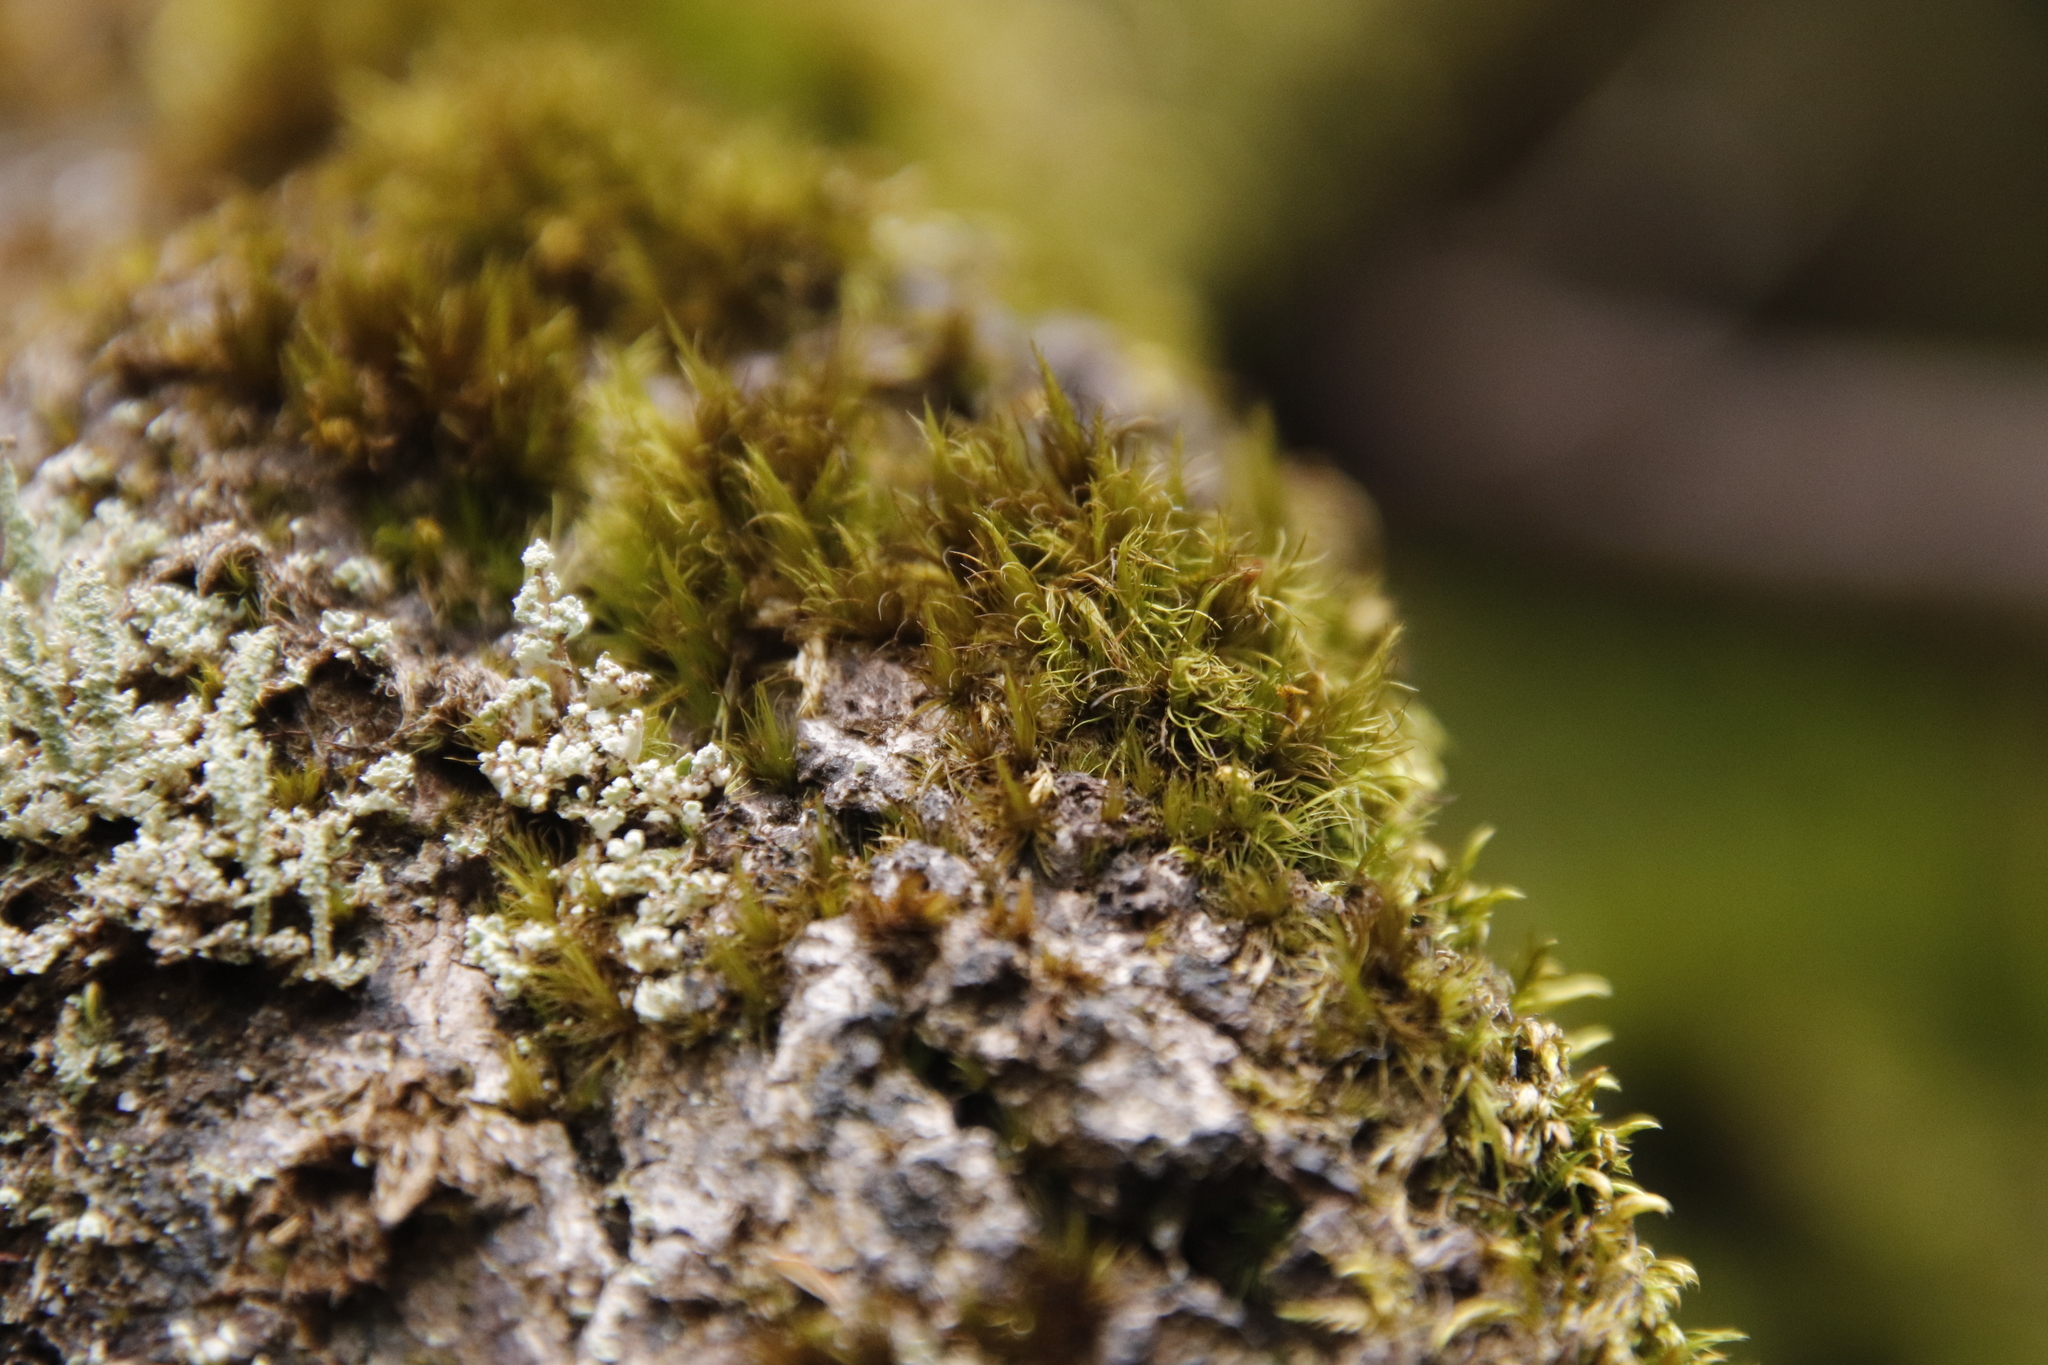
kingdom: Plantae
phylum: Bryophyta
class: Bryopsida
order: Dicranales
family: Dicranaceae
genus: Dicranum
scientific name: Dicranum scoparium
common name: Broom fork-moss
